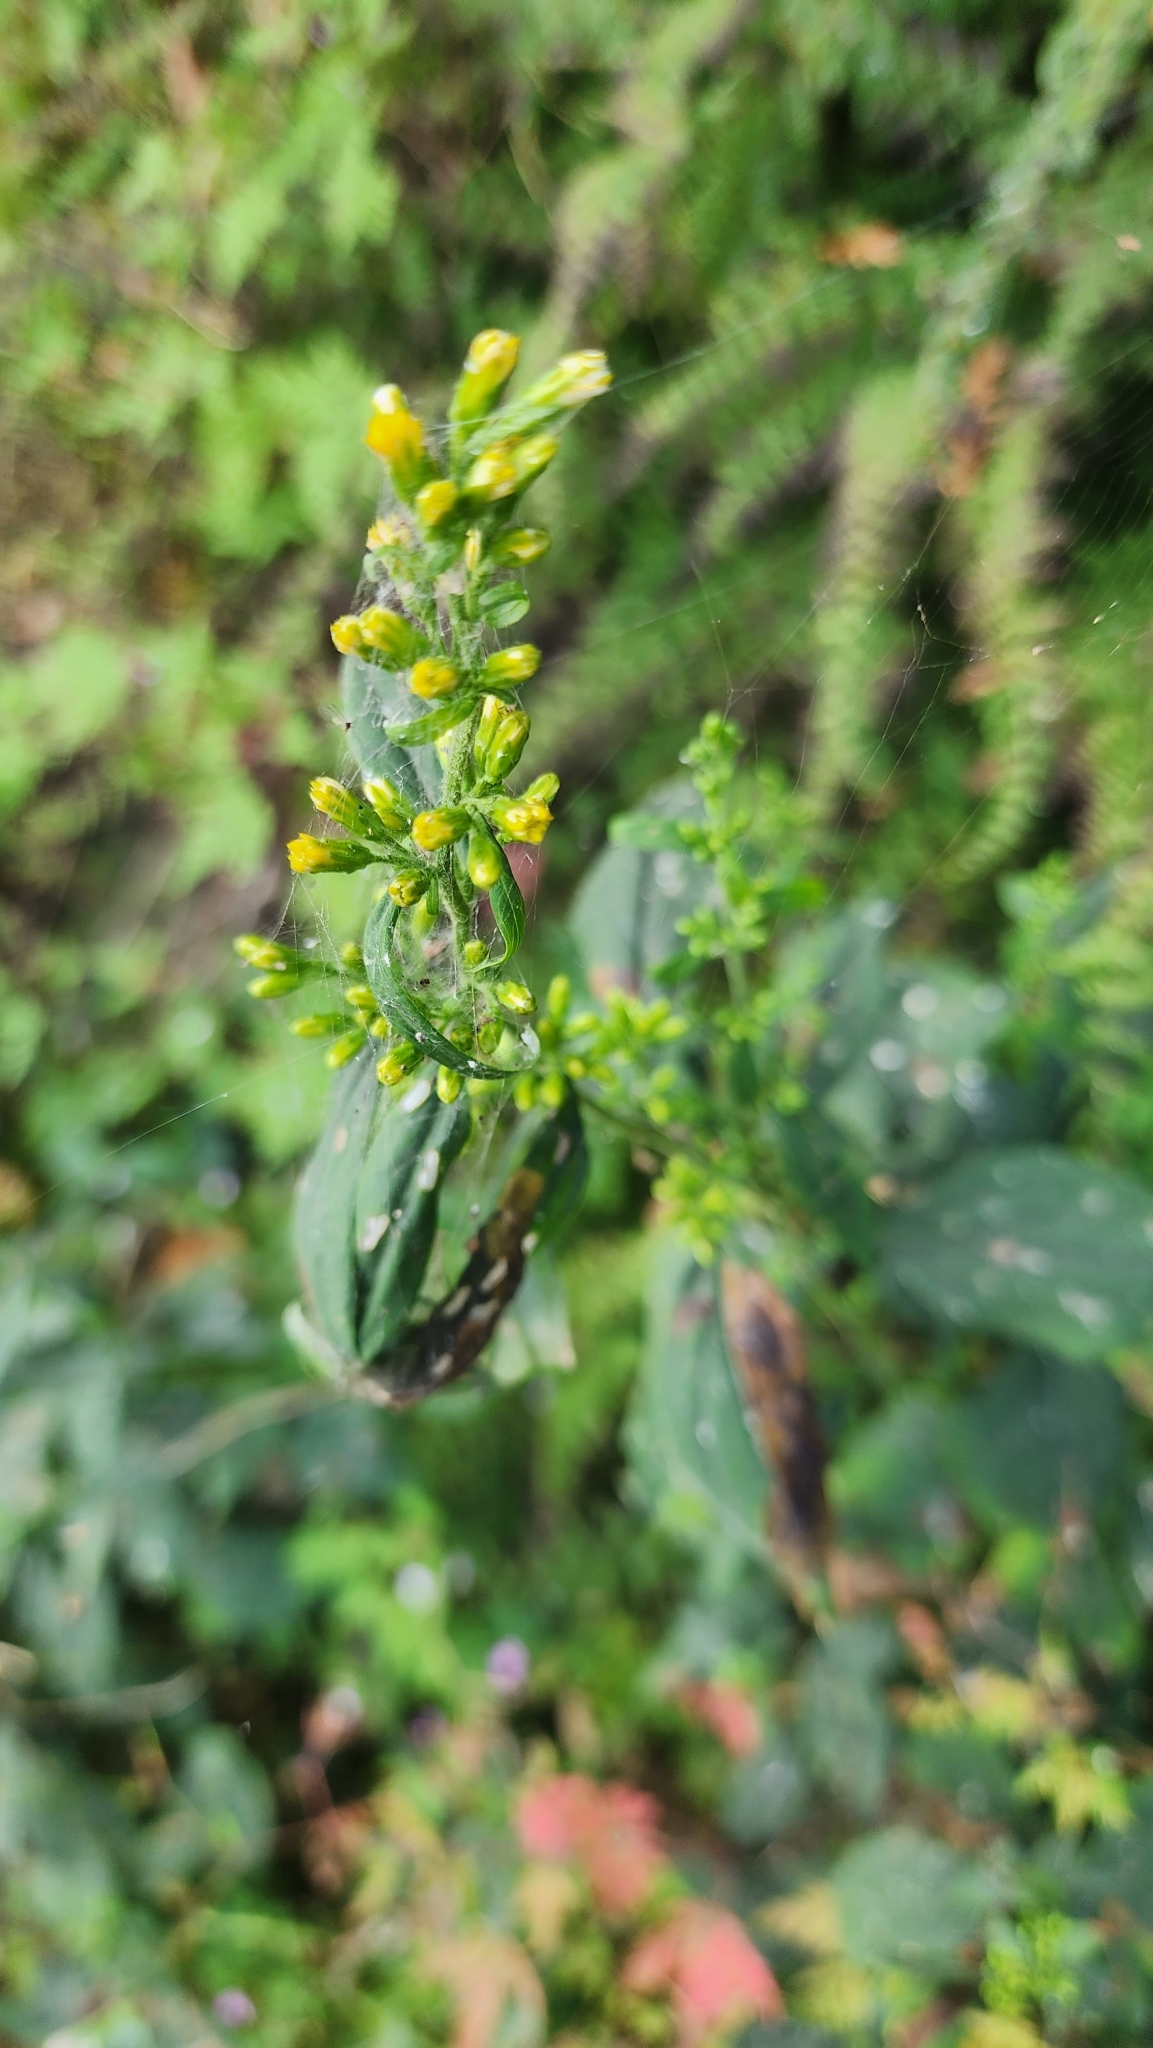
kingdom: Plantae
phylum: Tracheophyta
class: Magnoliopsida
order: Asterales
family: Asteraceae
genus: Solidago
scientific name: Solidago flexicaulis
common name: Zig-zag goldenrod
